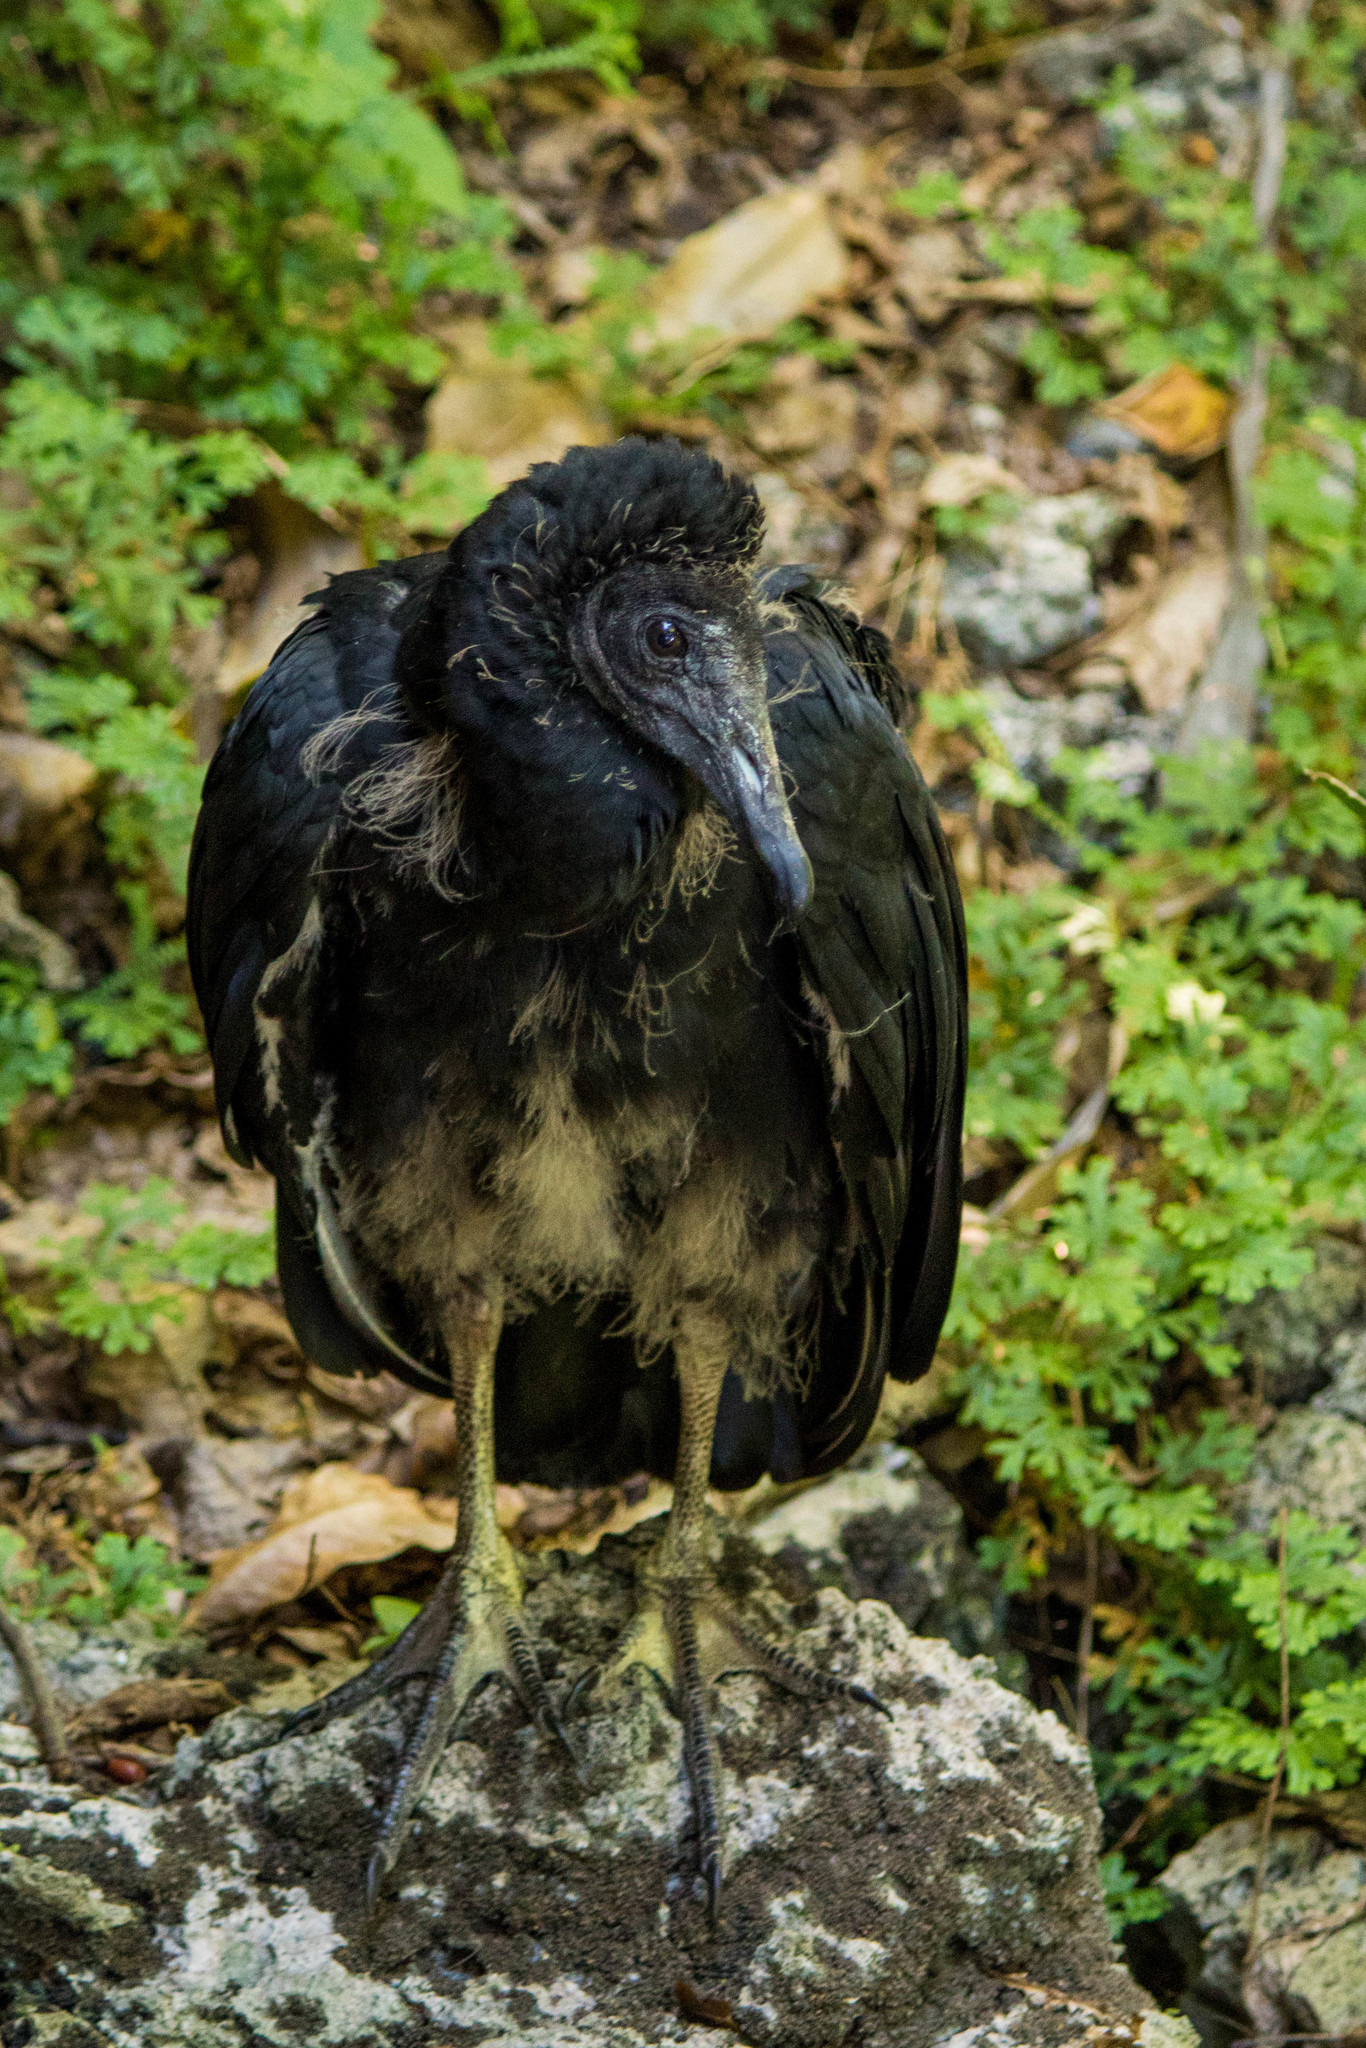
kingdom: Animalia
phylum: Chordata
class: Aves
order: Accipitriformes
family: Cathartidae
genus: Coragyps
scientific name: Coragyps atratus
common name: Black vulture
